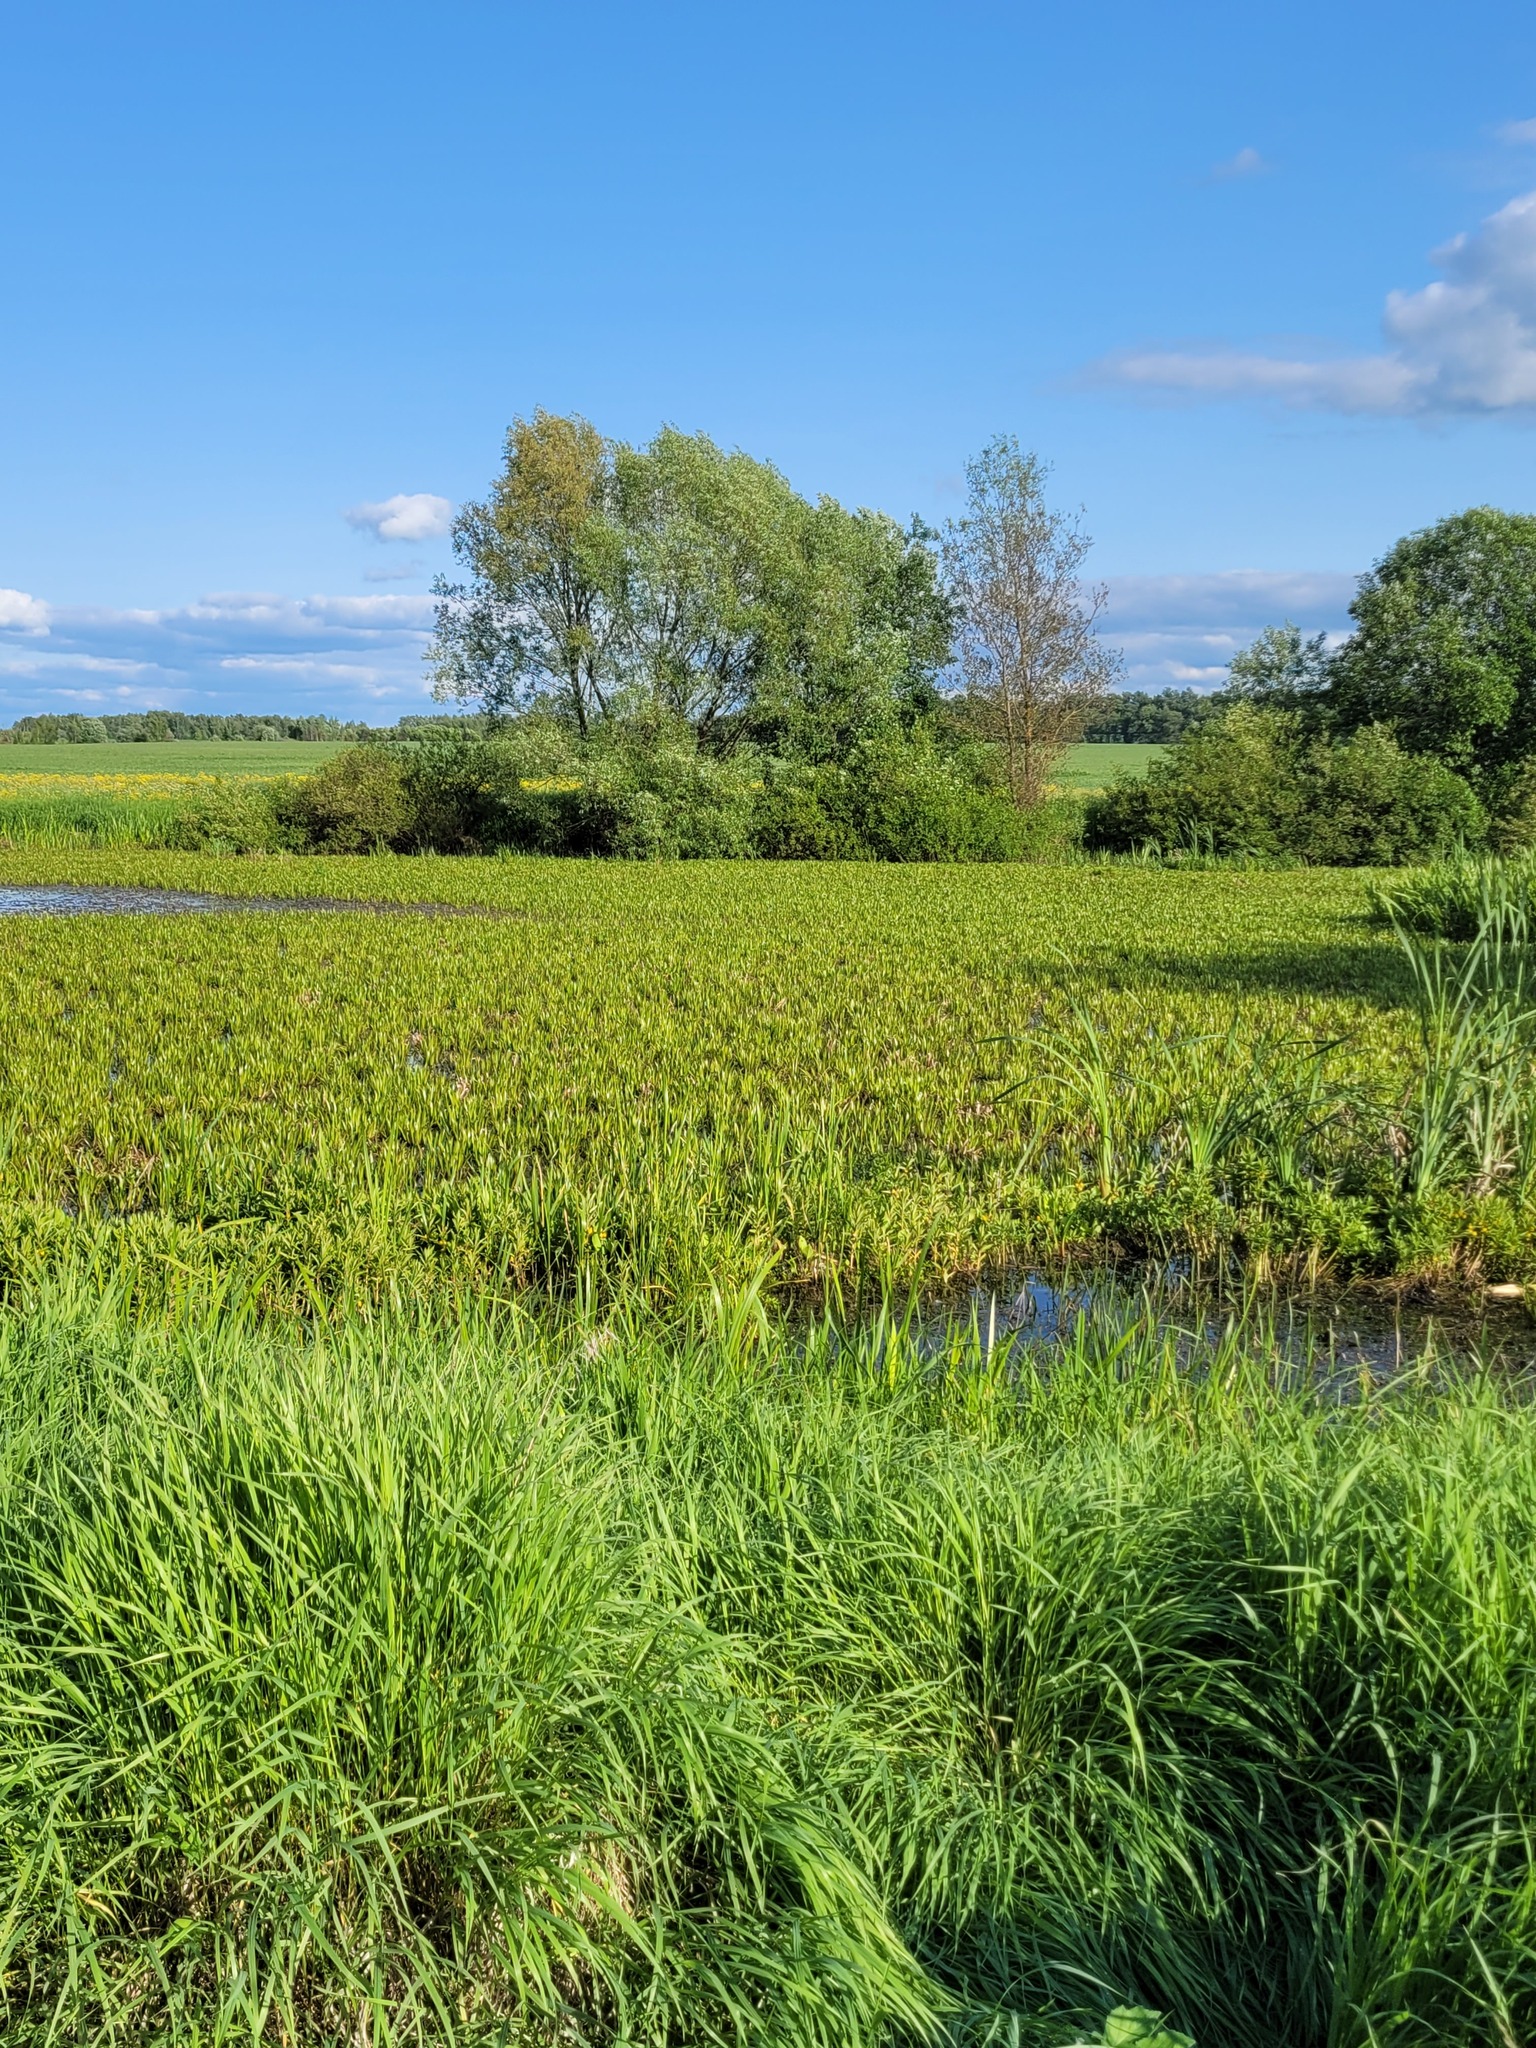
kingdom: Plantae
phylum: Tracheophyta
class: Liliopsida
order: Alismatales
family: Hydrocharitaceae
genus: Stratiotes
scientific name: Stratiotes aloides
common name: Water-soldier
